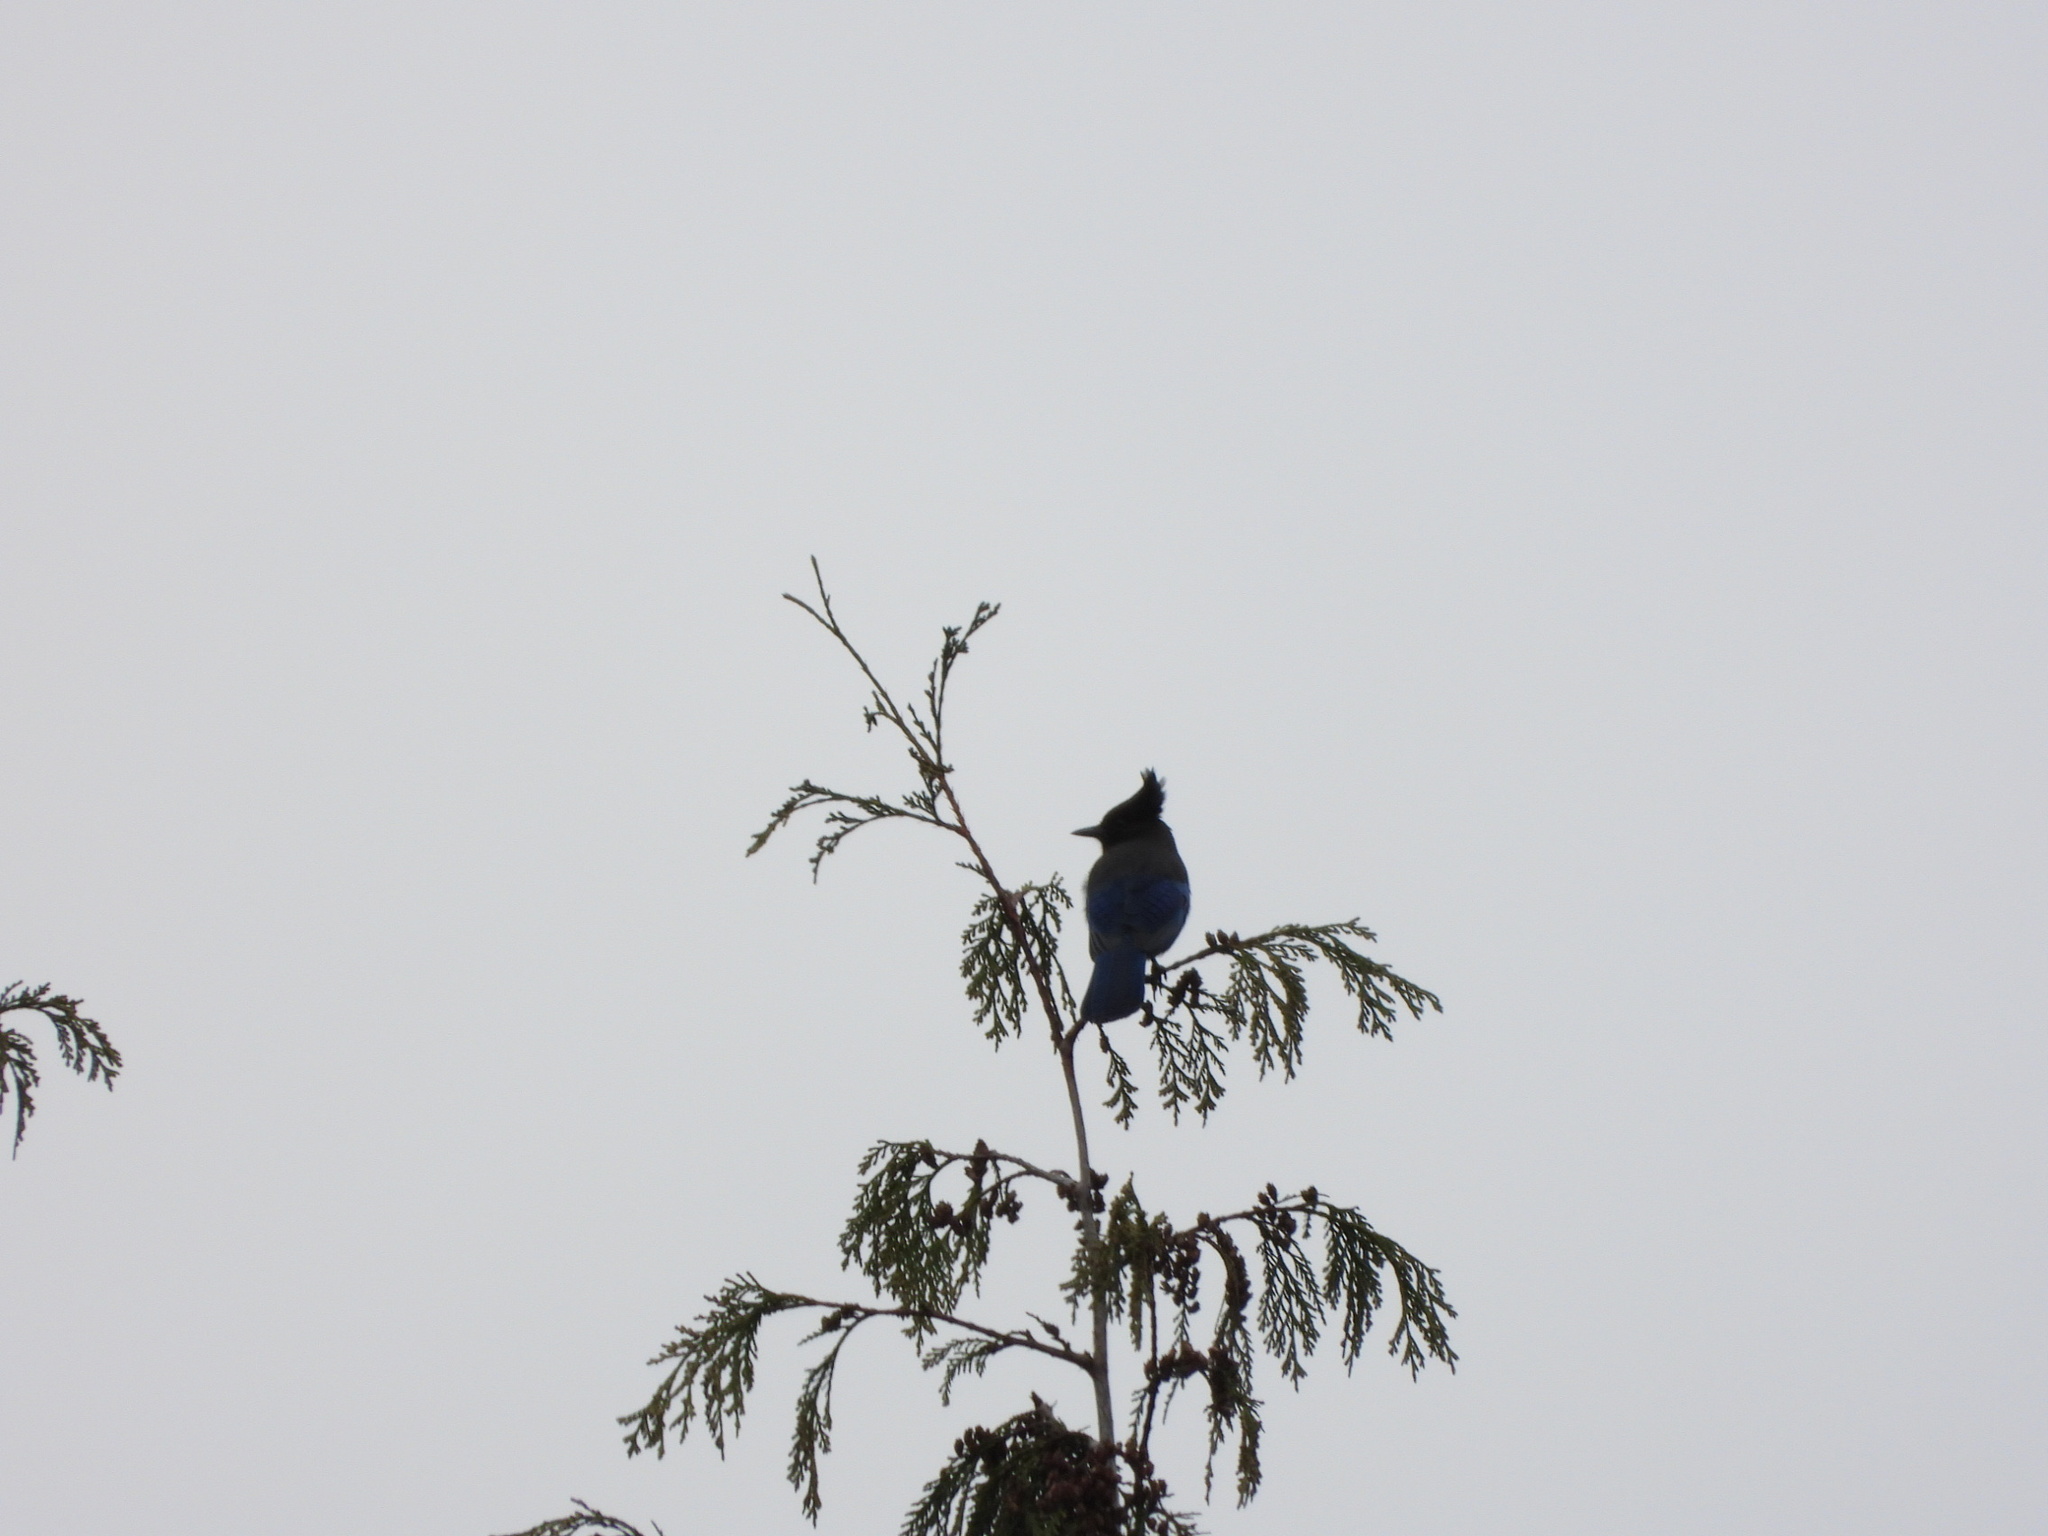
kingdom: Animalia
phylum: Chordata
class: Aves
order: Passeriformes
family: Corvidae
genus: Cyanocitta
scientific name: Cyanocitta stelleri
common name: Steller's jay
